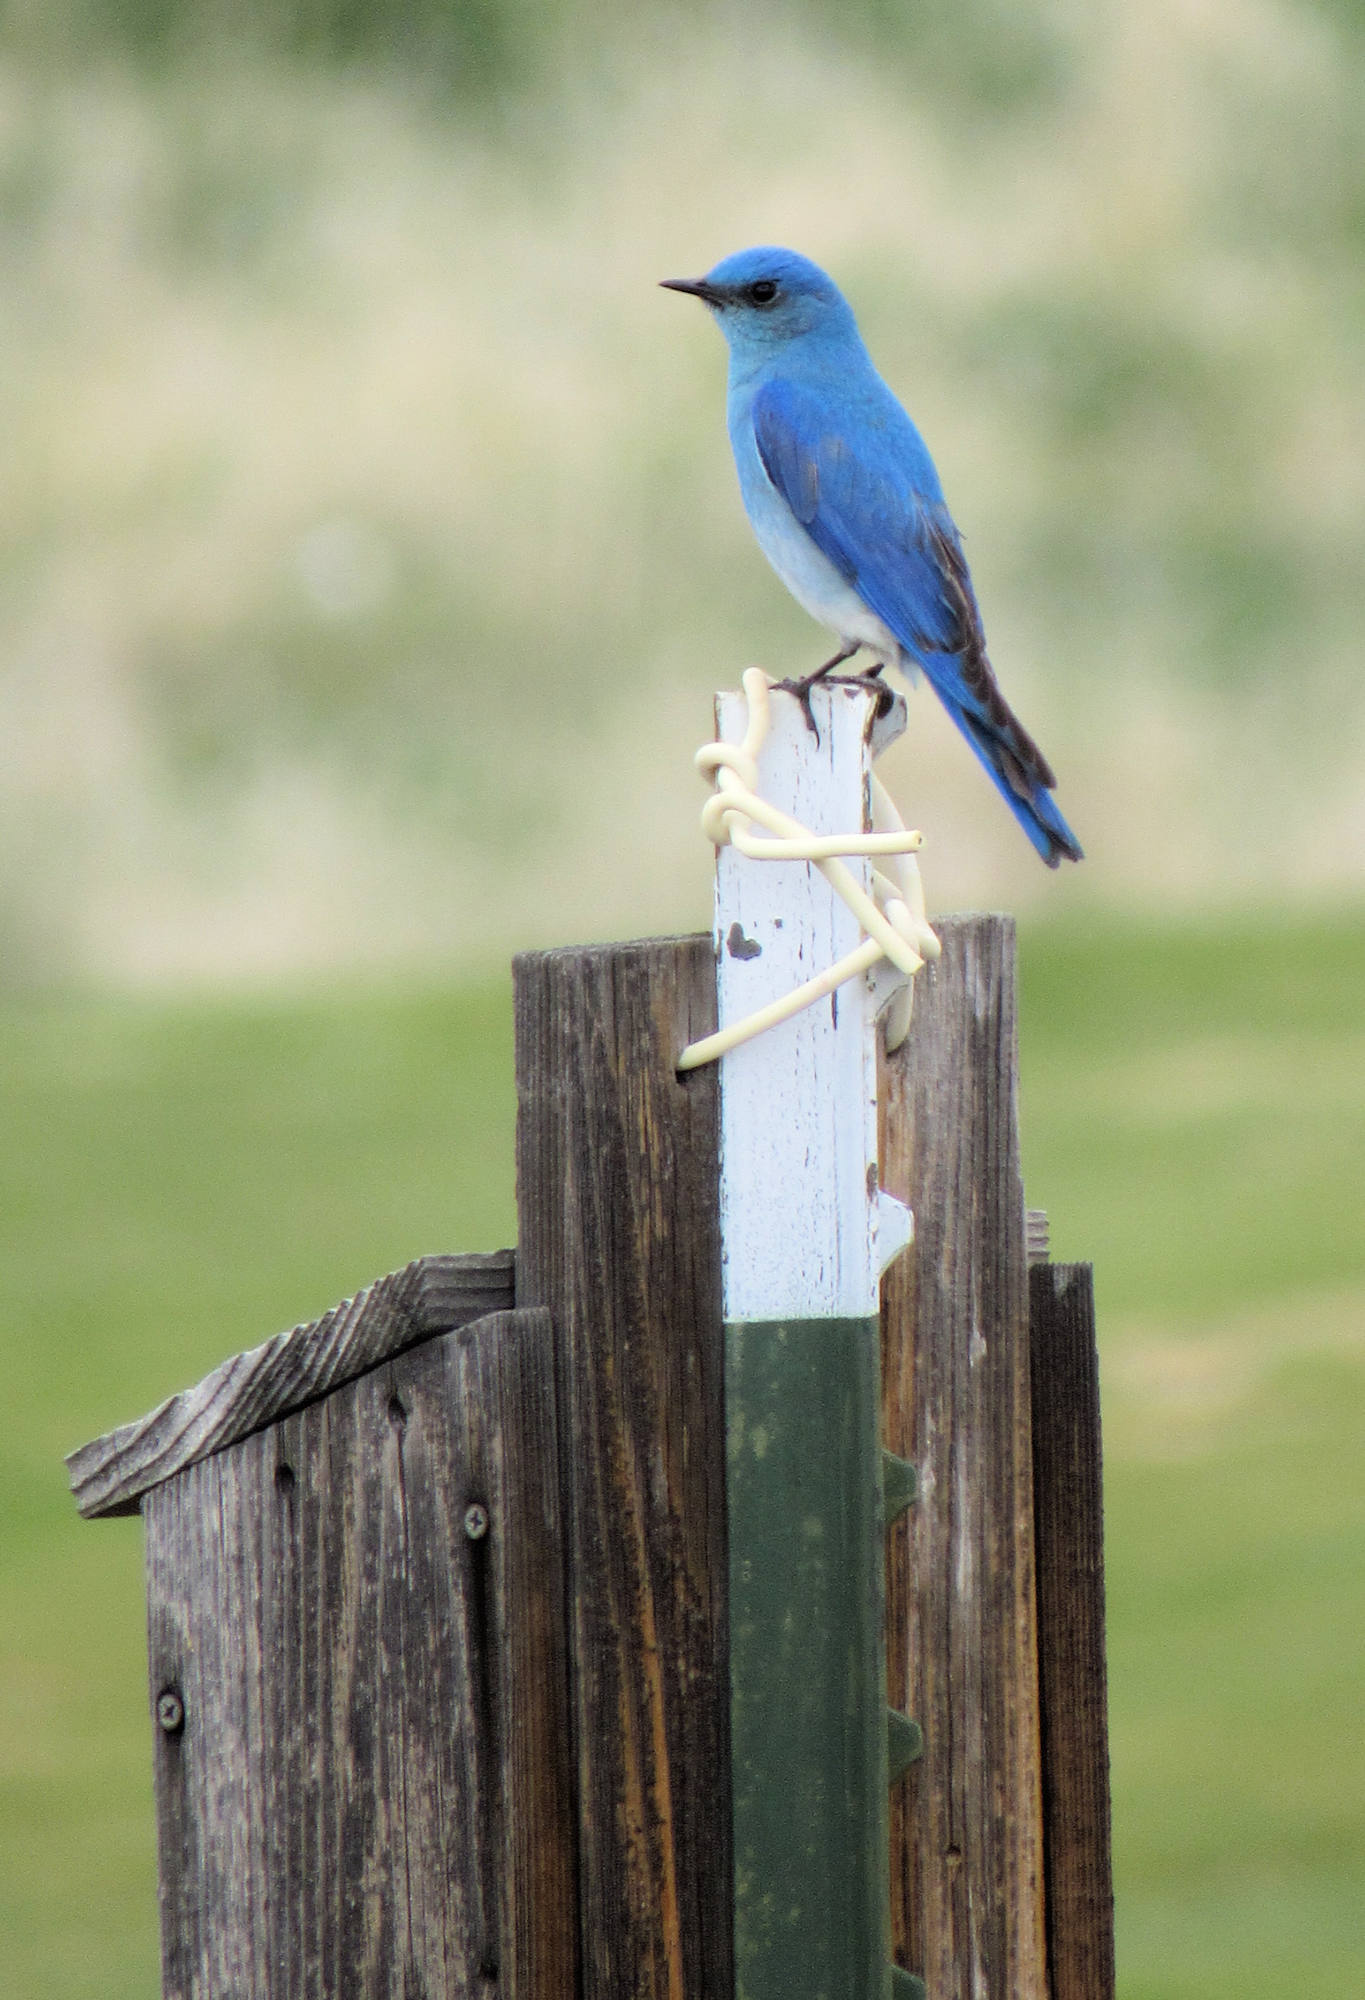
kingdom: Animalia
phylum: Chordata
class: Aves
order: Passeriformes
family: Turdidae
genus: Sialia
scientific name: Sialia currucoides
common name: Mountain bluebird
